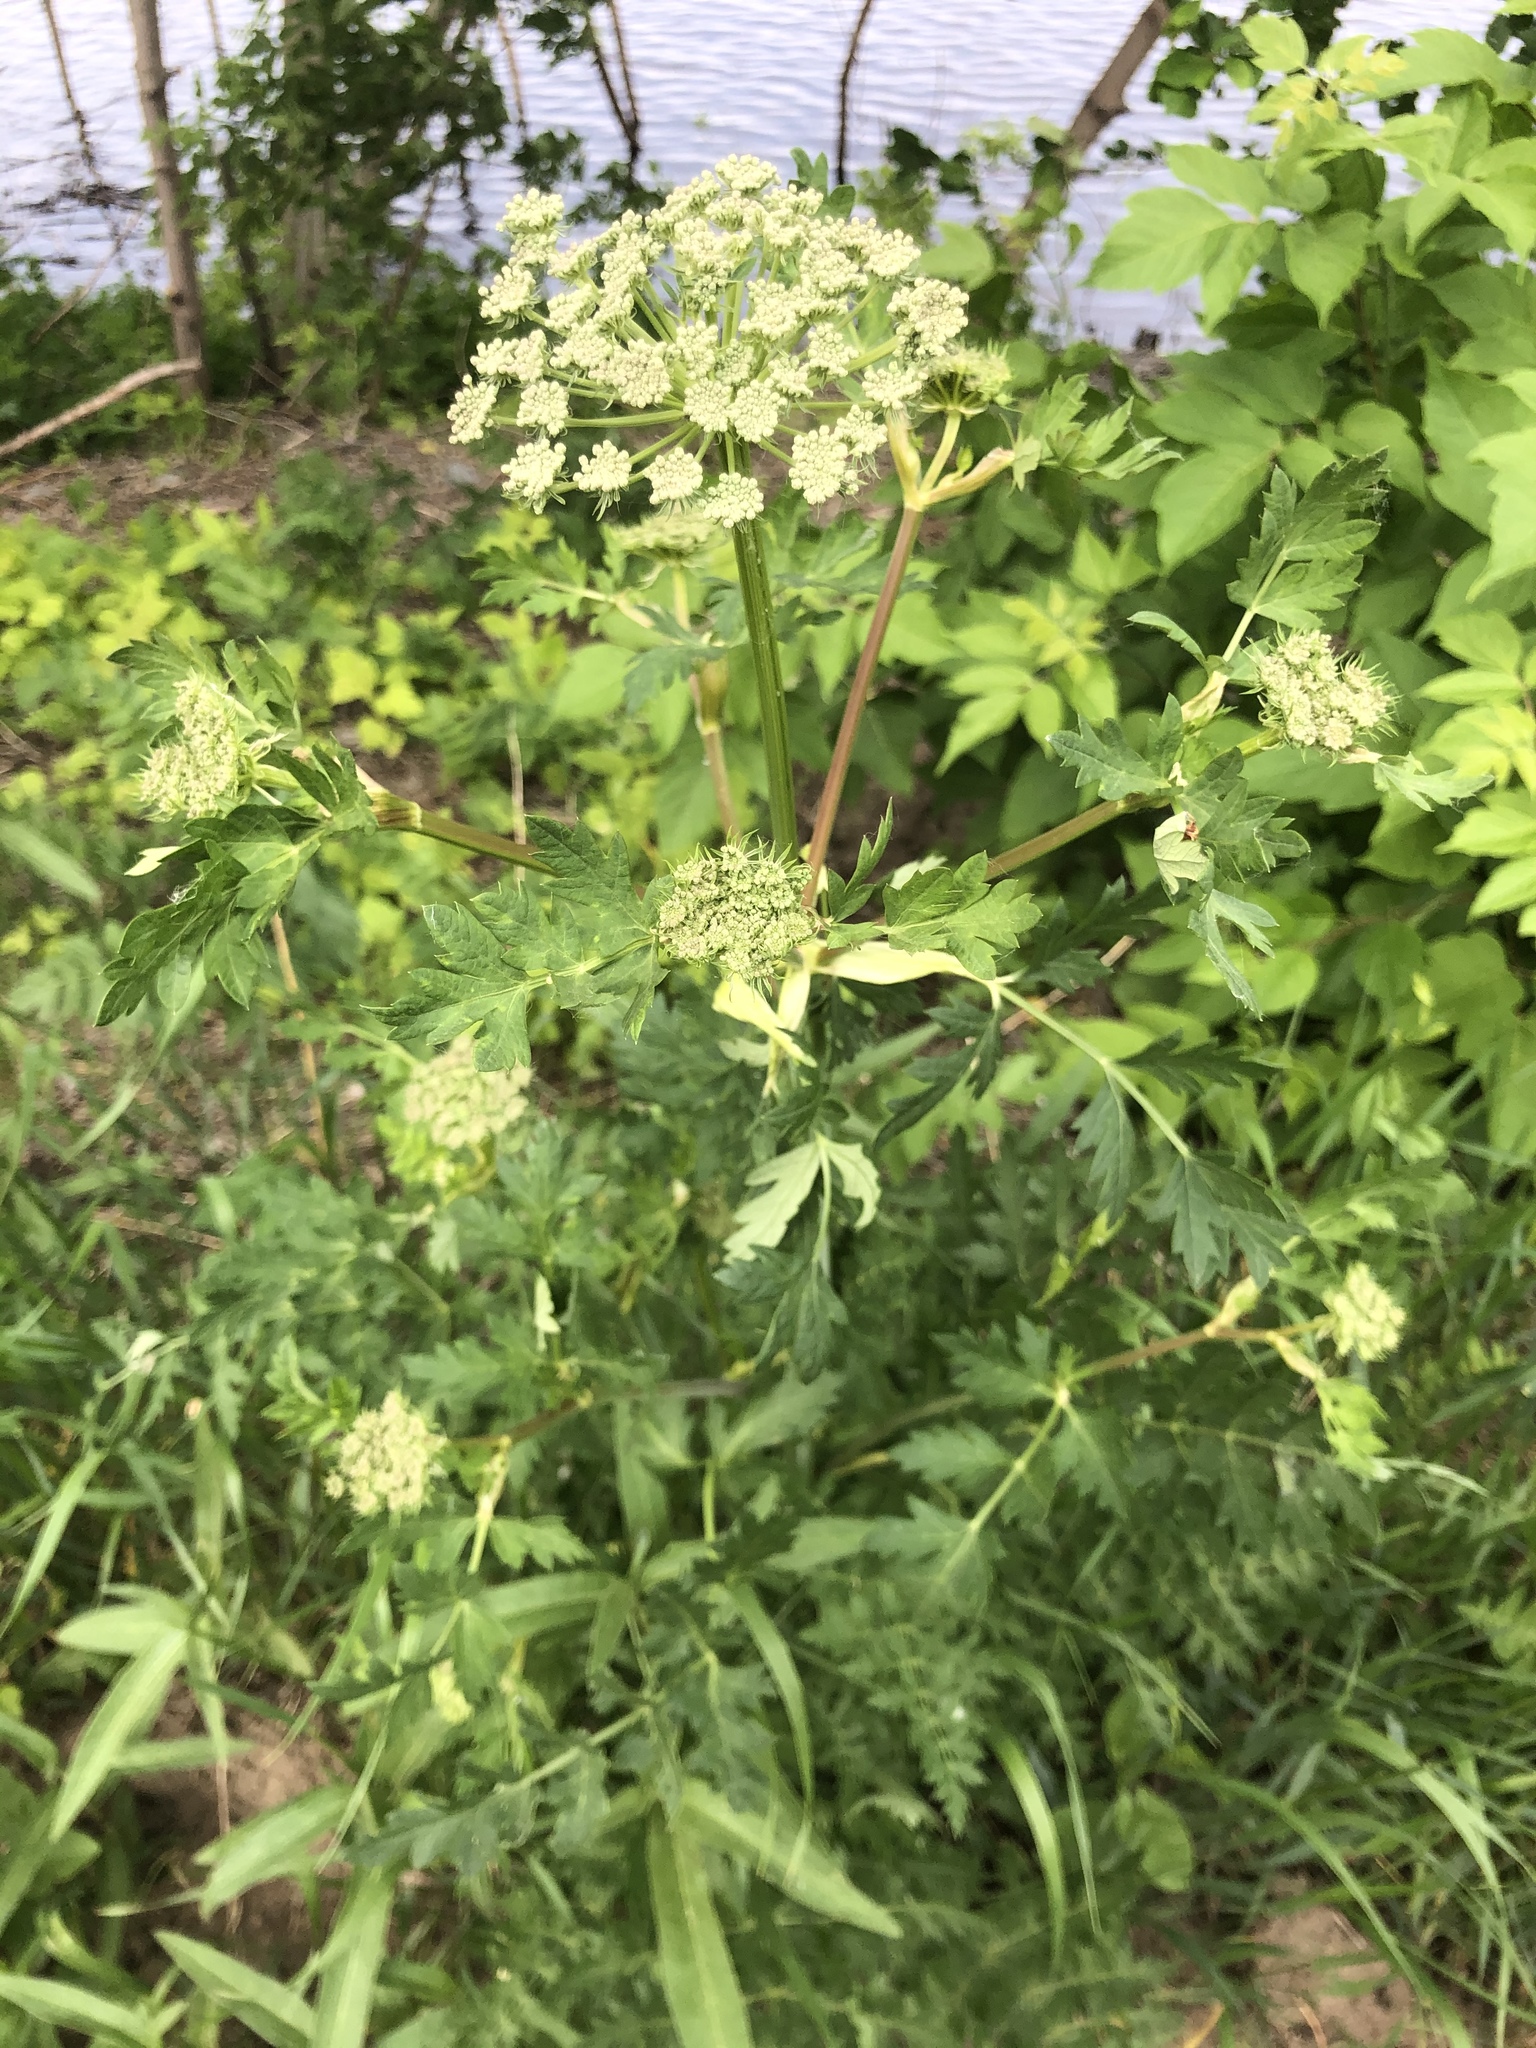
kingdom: Plantae
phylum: Tracheophyta
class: Magnoliopsida
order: Apiales
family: Apiaceae
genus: Seseli
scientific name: Seseli libanotis
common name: Mooncarrot
